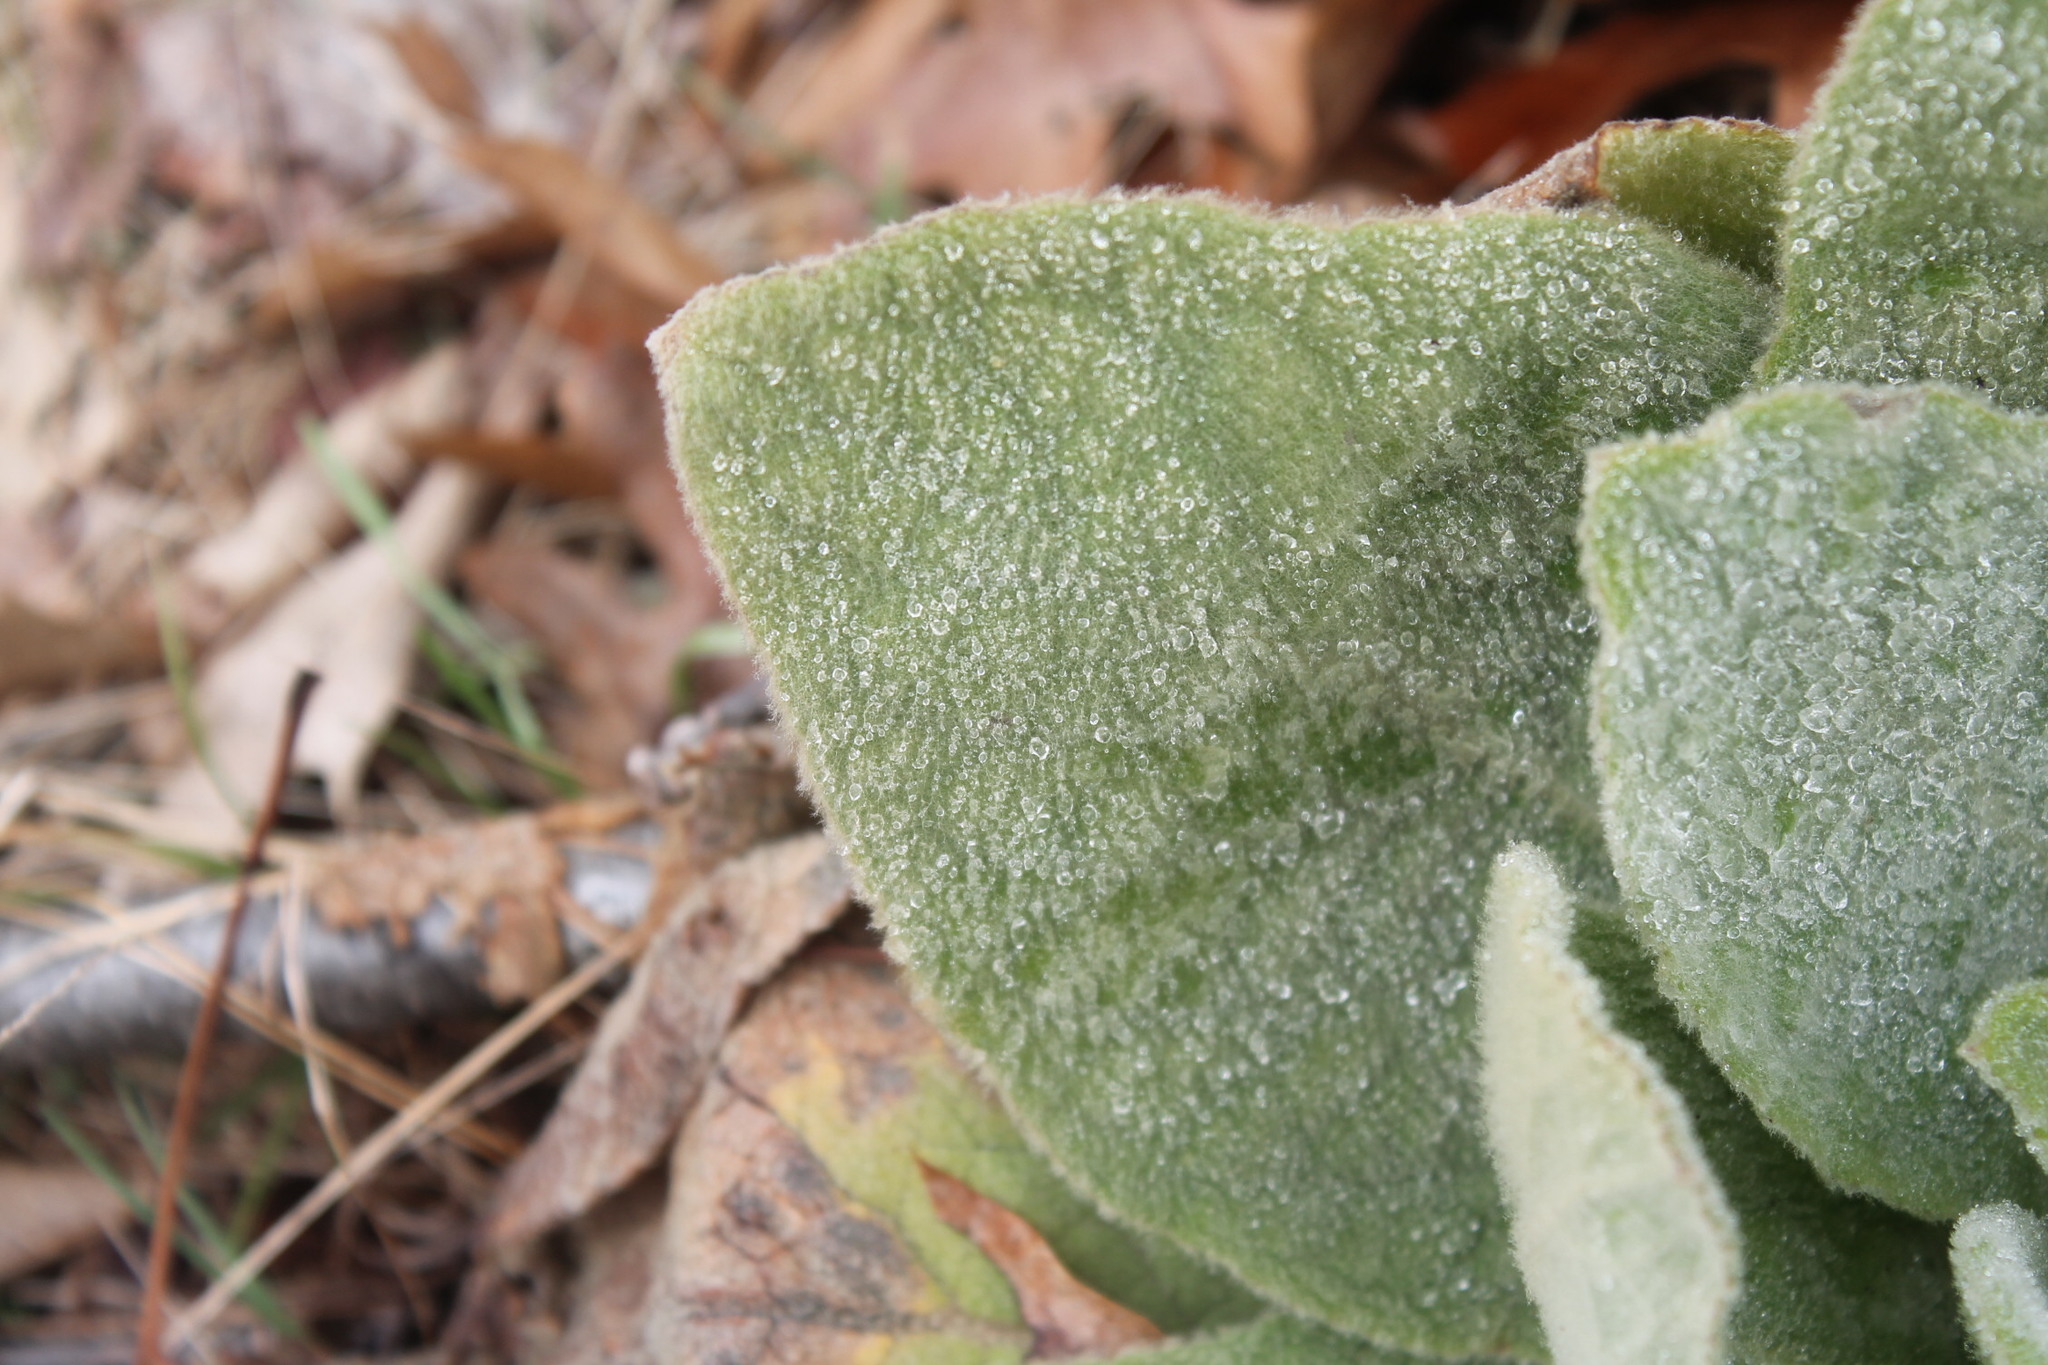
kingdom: Plantae
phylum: Tracheophyta
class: Magnoliopsida
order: Lamiales
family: Scrophulariaceae
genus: Verbascum
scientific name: Verbascum thapsus
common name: Common mullein
